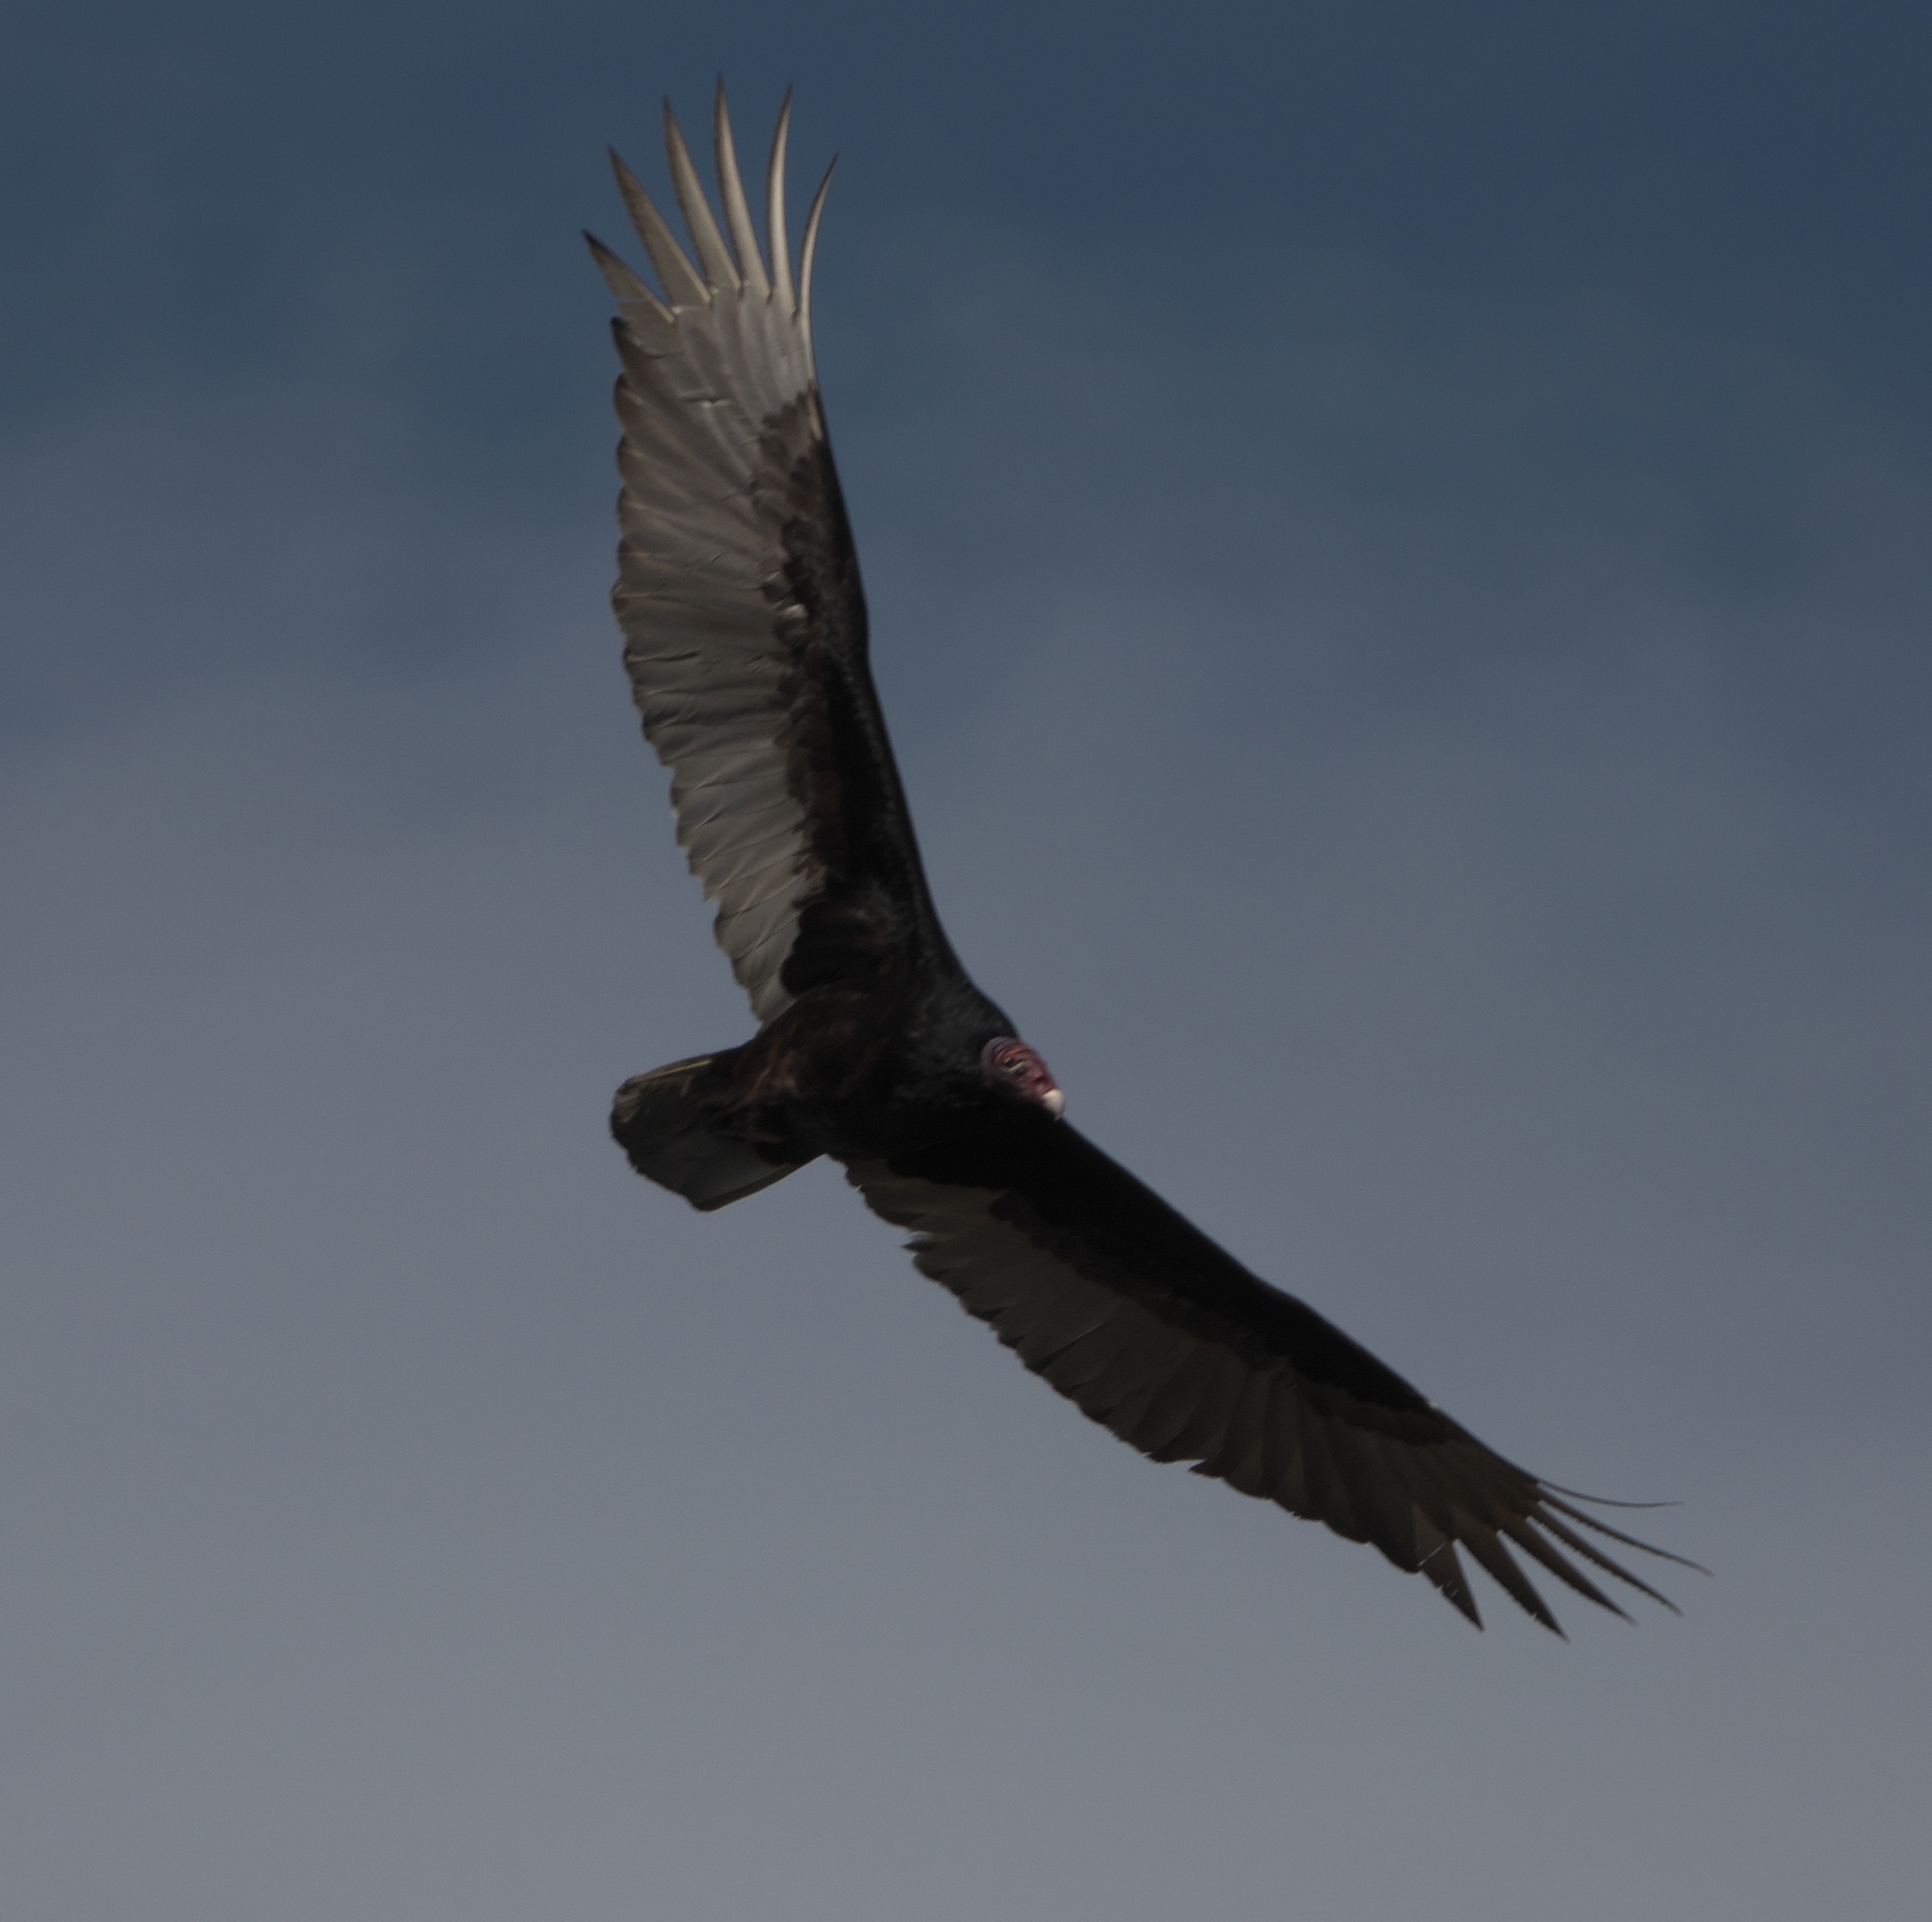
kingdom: Animalia
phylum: Chordata
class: Aves
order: Accipitriformes
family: Cathartidae
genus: Cathartes
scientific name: Cathartes aura
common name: Turkey vulture
